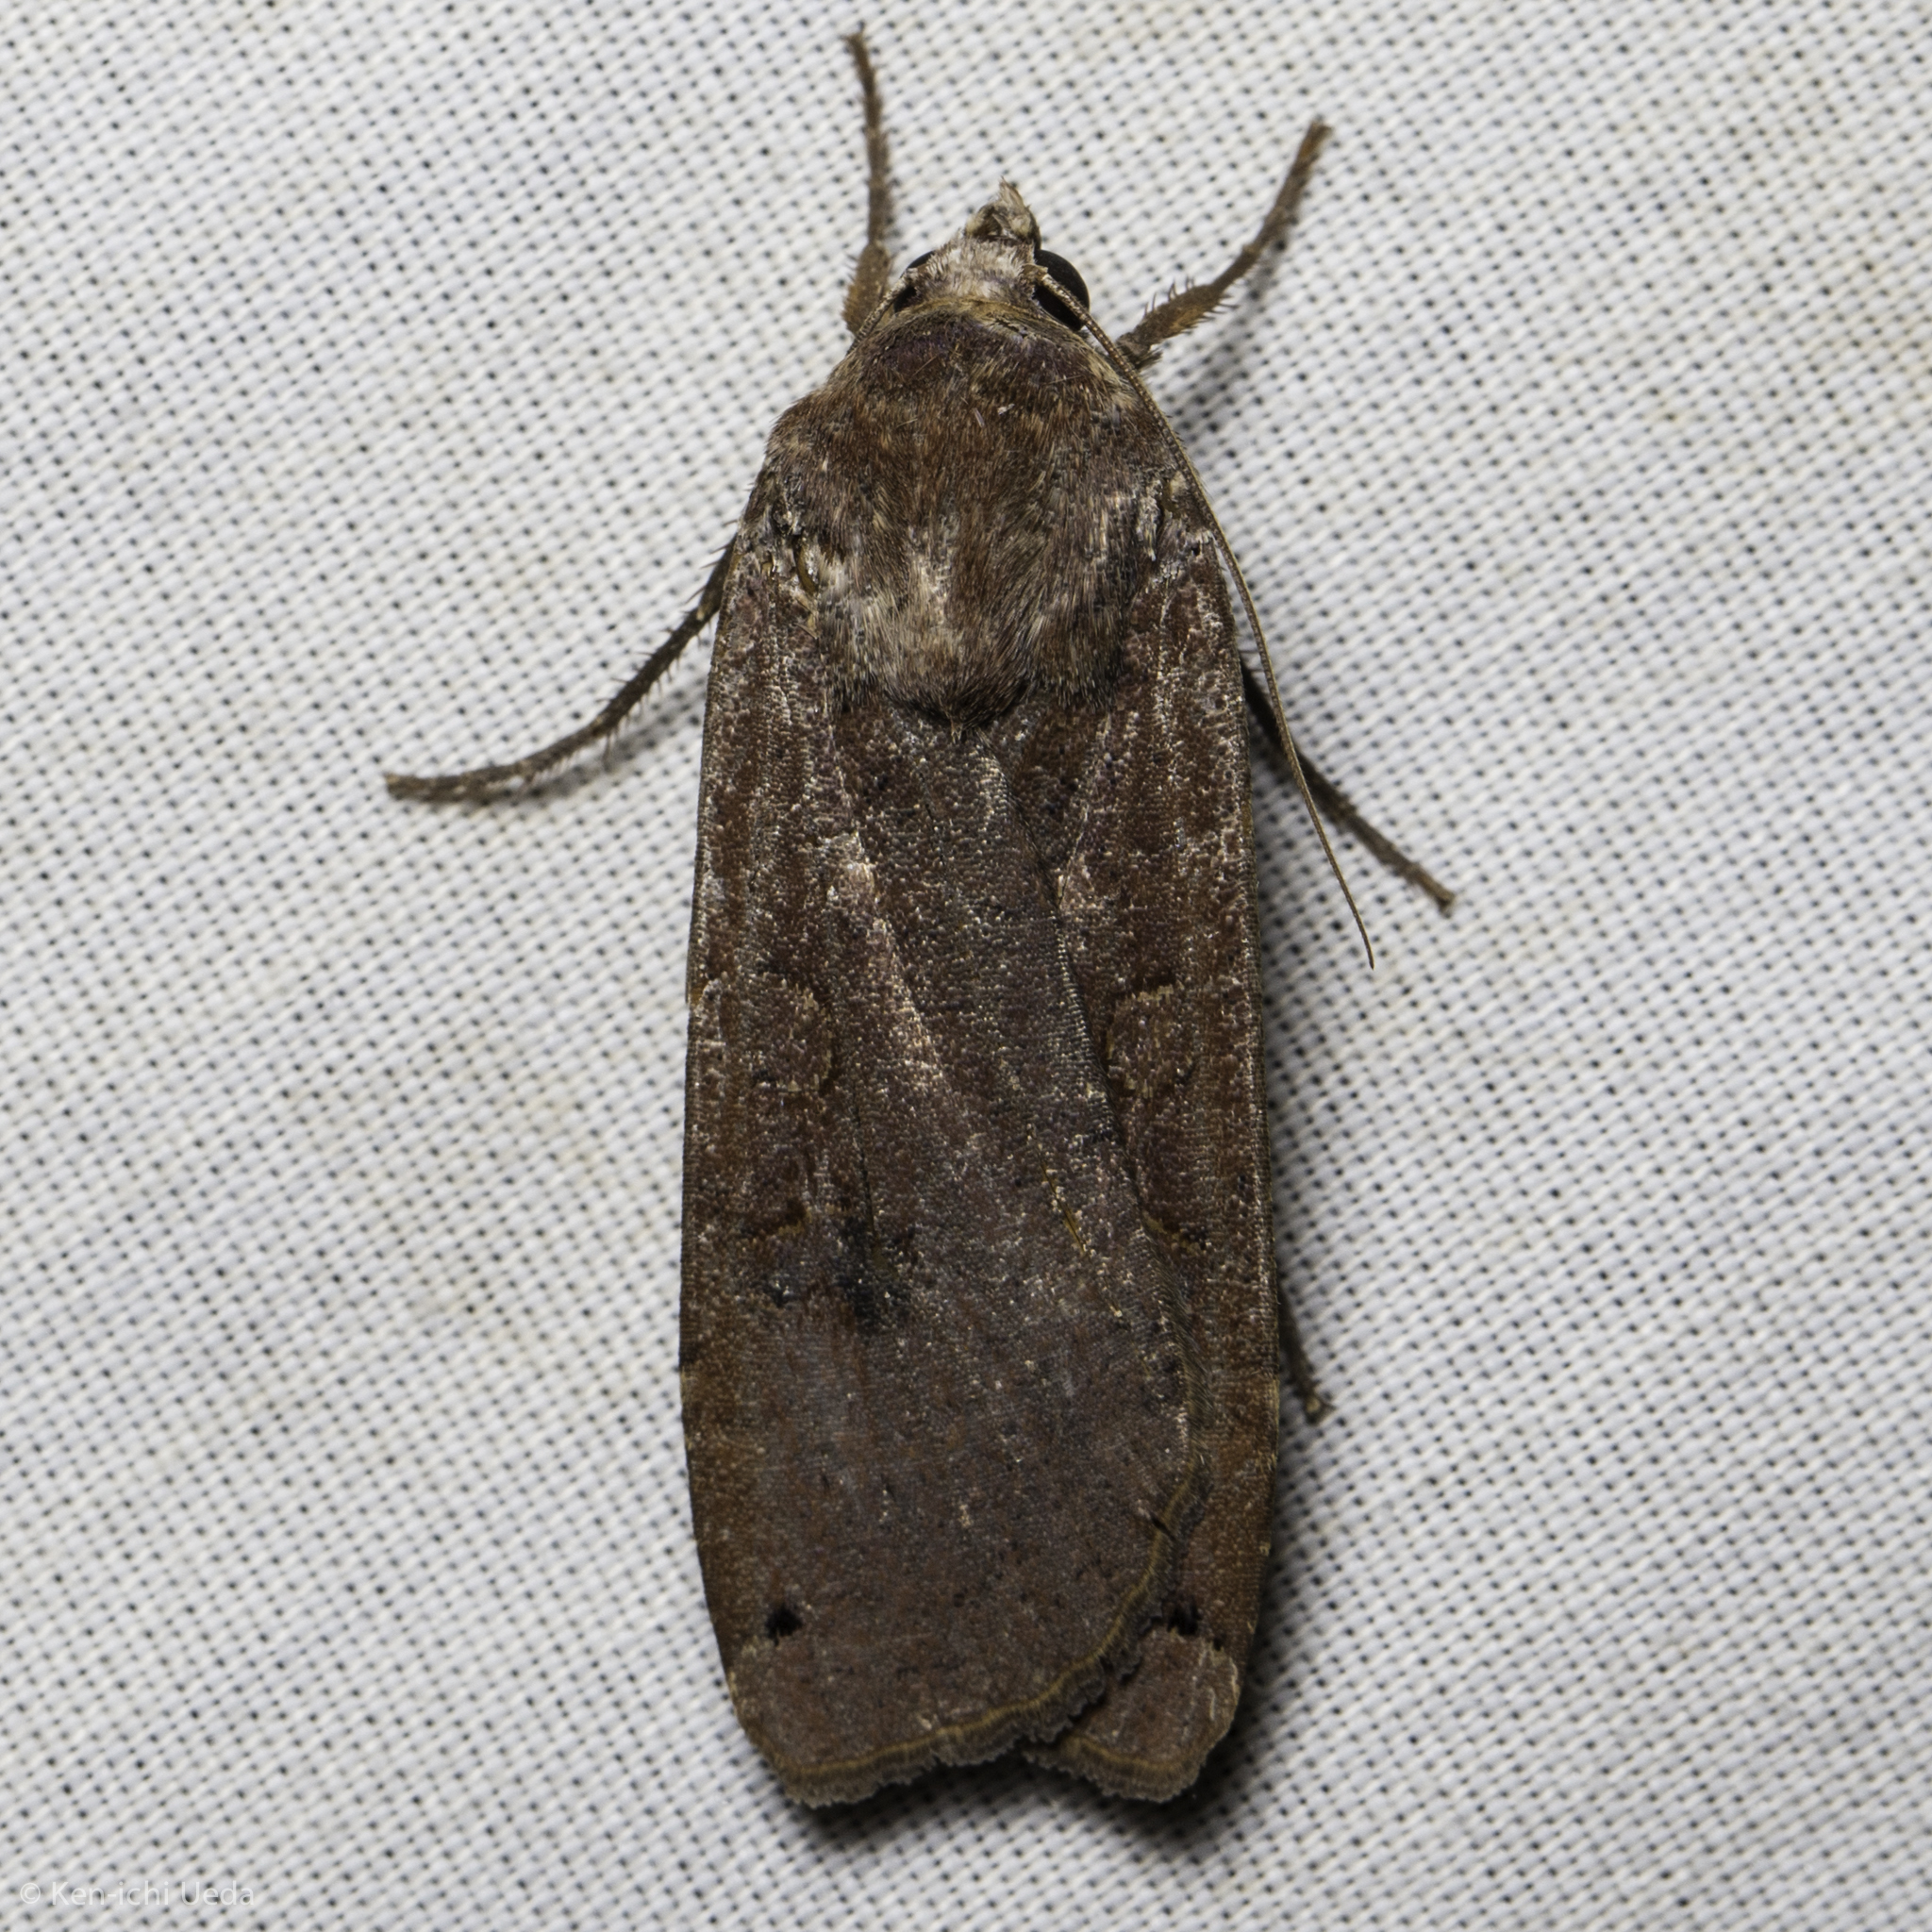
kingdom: Animalia
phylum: Arthropoda
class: Insecta
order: Lepidoptera
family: Noctuidae
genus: Noctua
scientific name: Noctua pronuba
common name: Large yellow underwing
